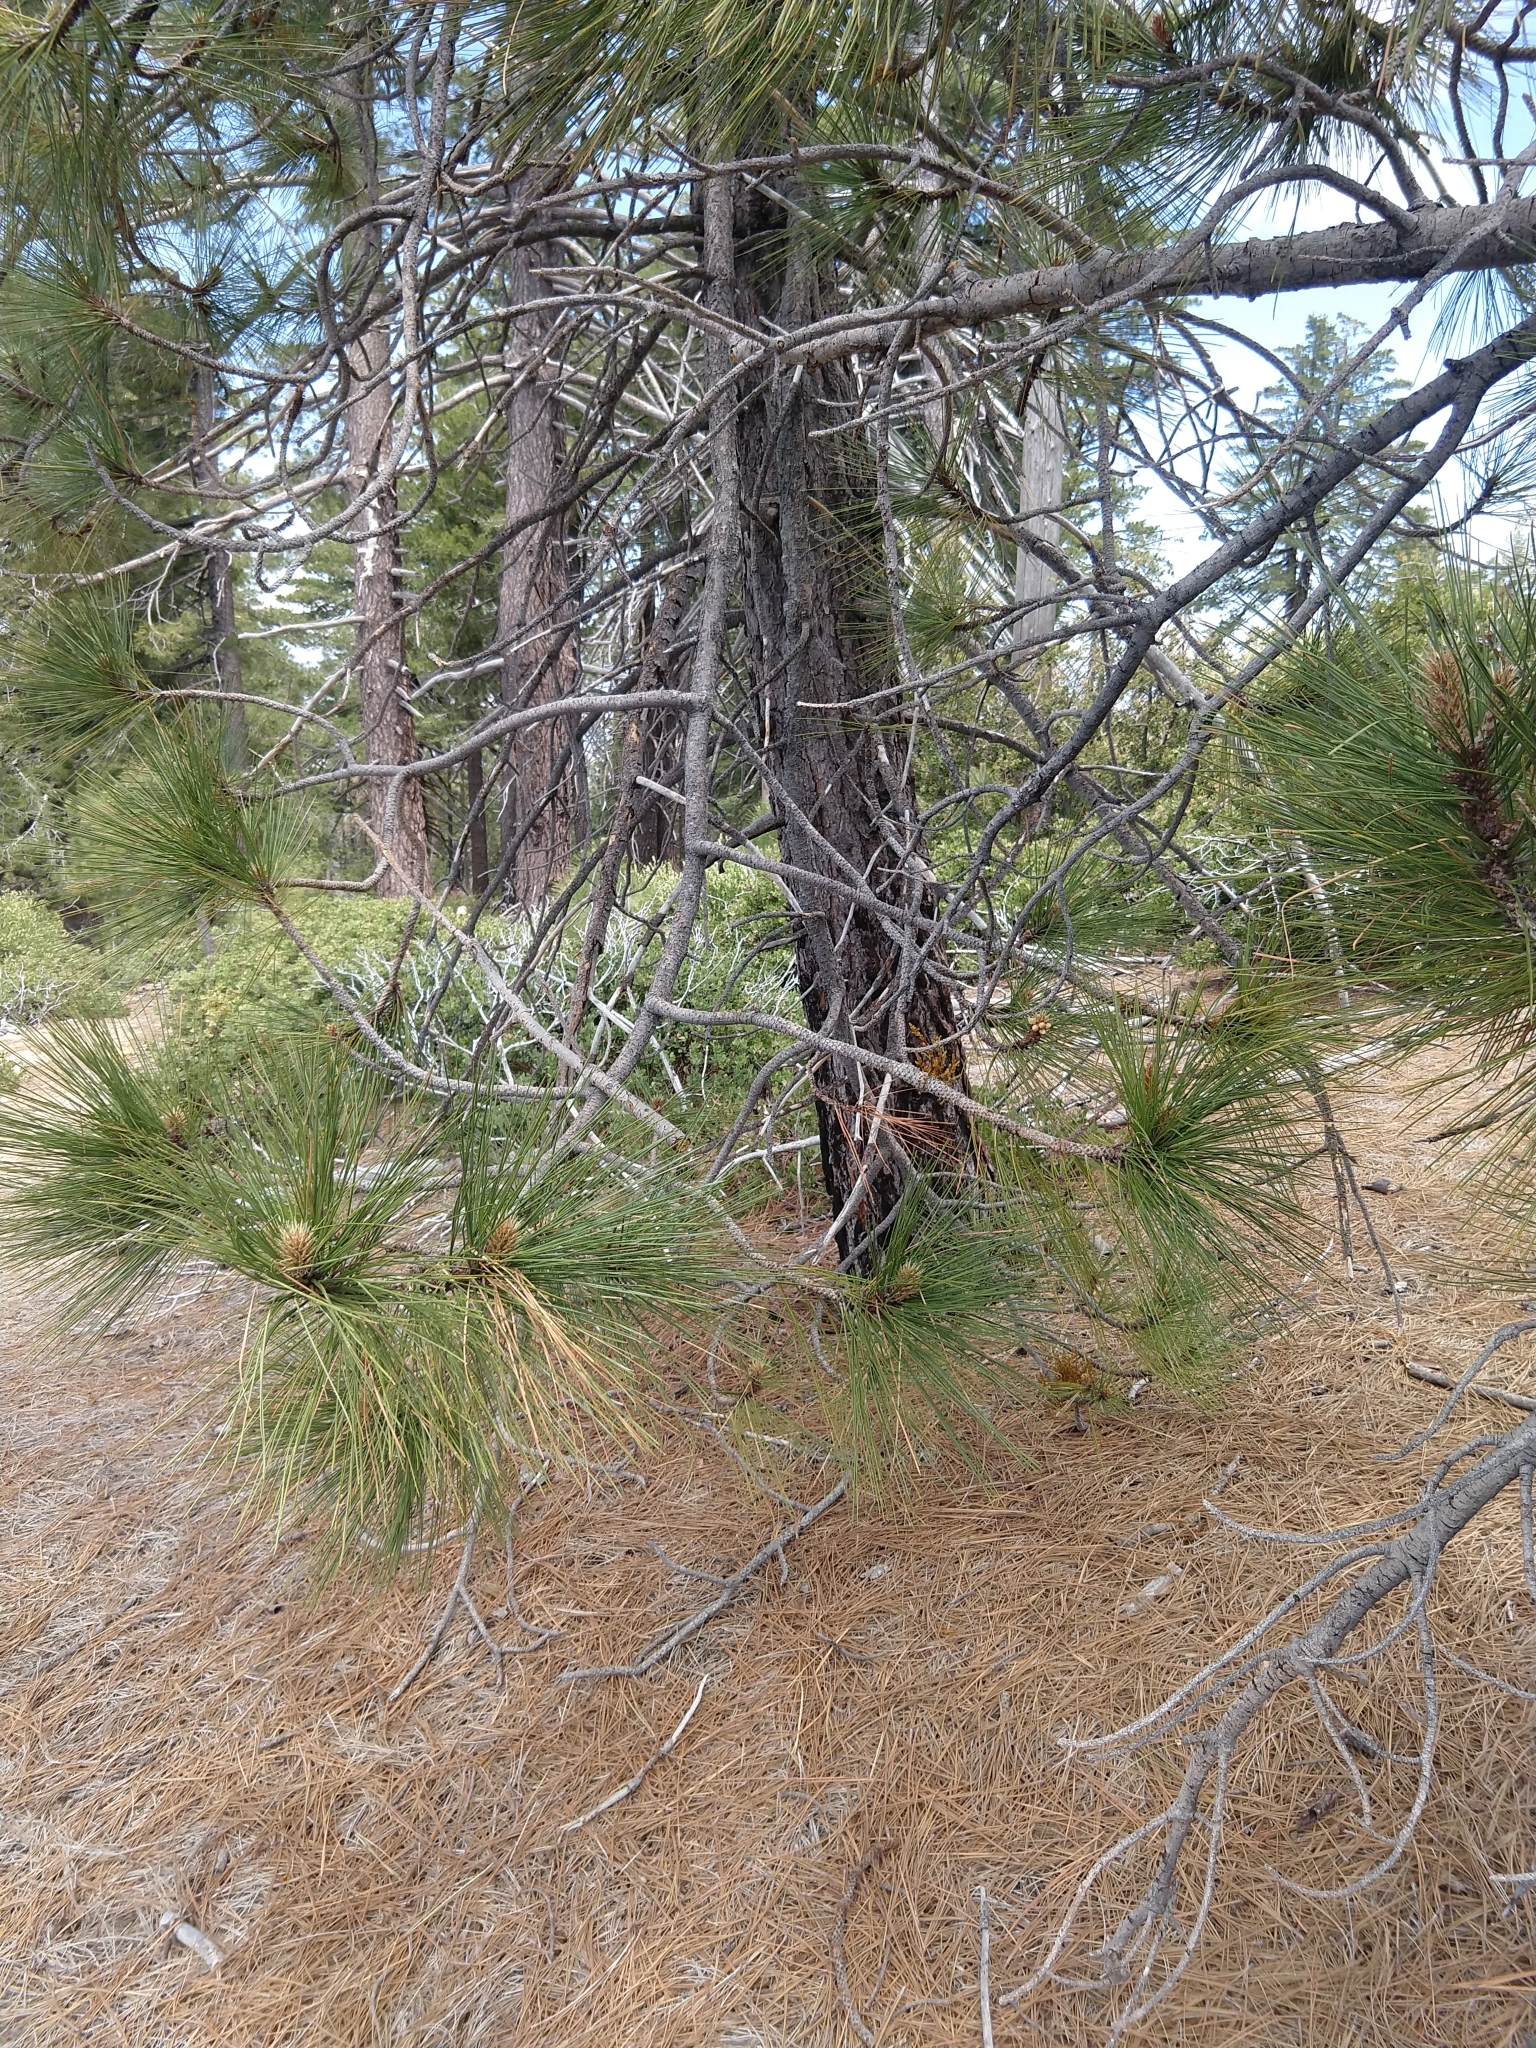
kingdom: Plantae
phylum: Tracheophyta
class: Magnoliopsida
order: Santalales
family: Viscaceae
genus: Arceuthobium
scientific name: Arceuthobium campylopodum
